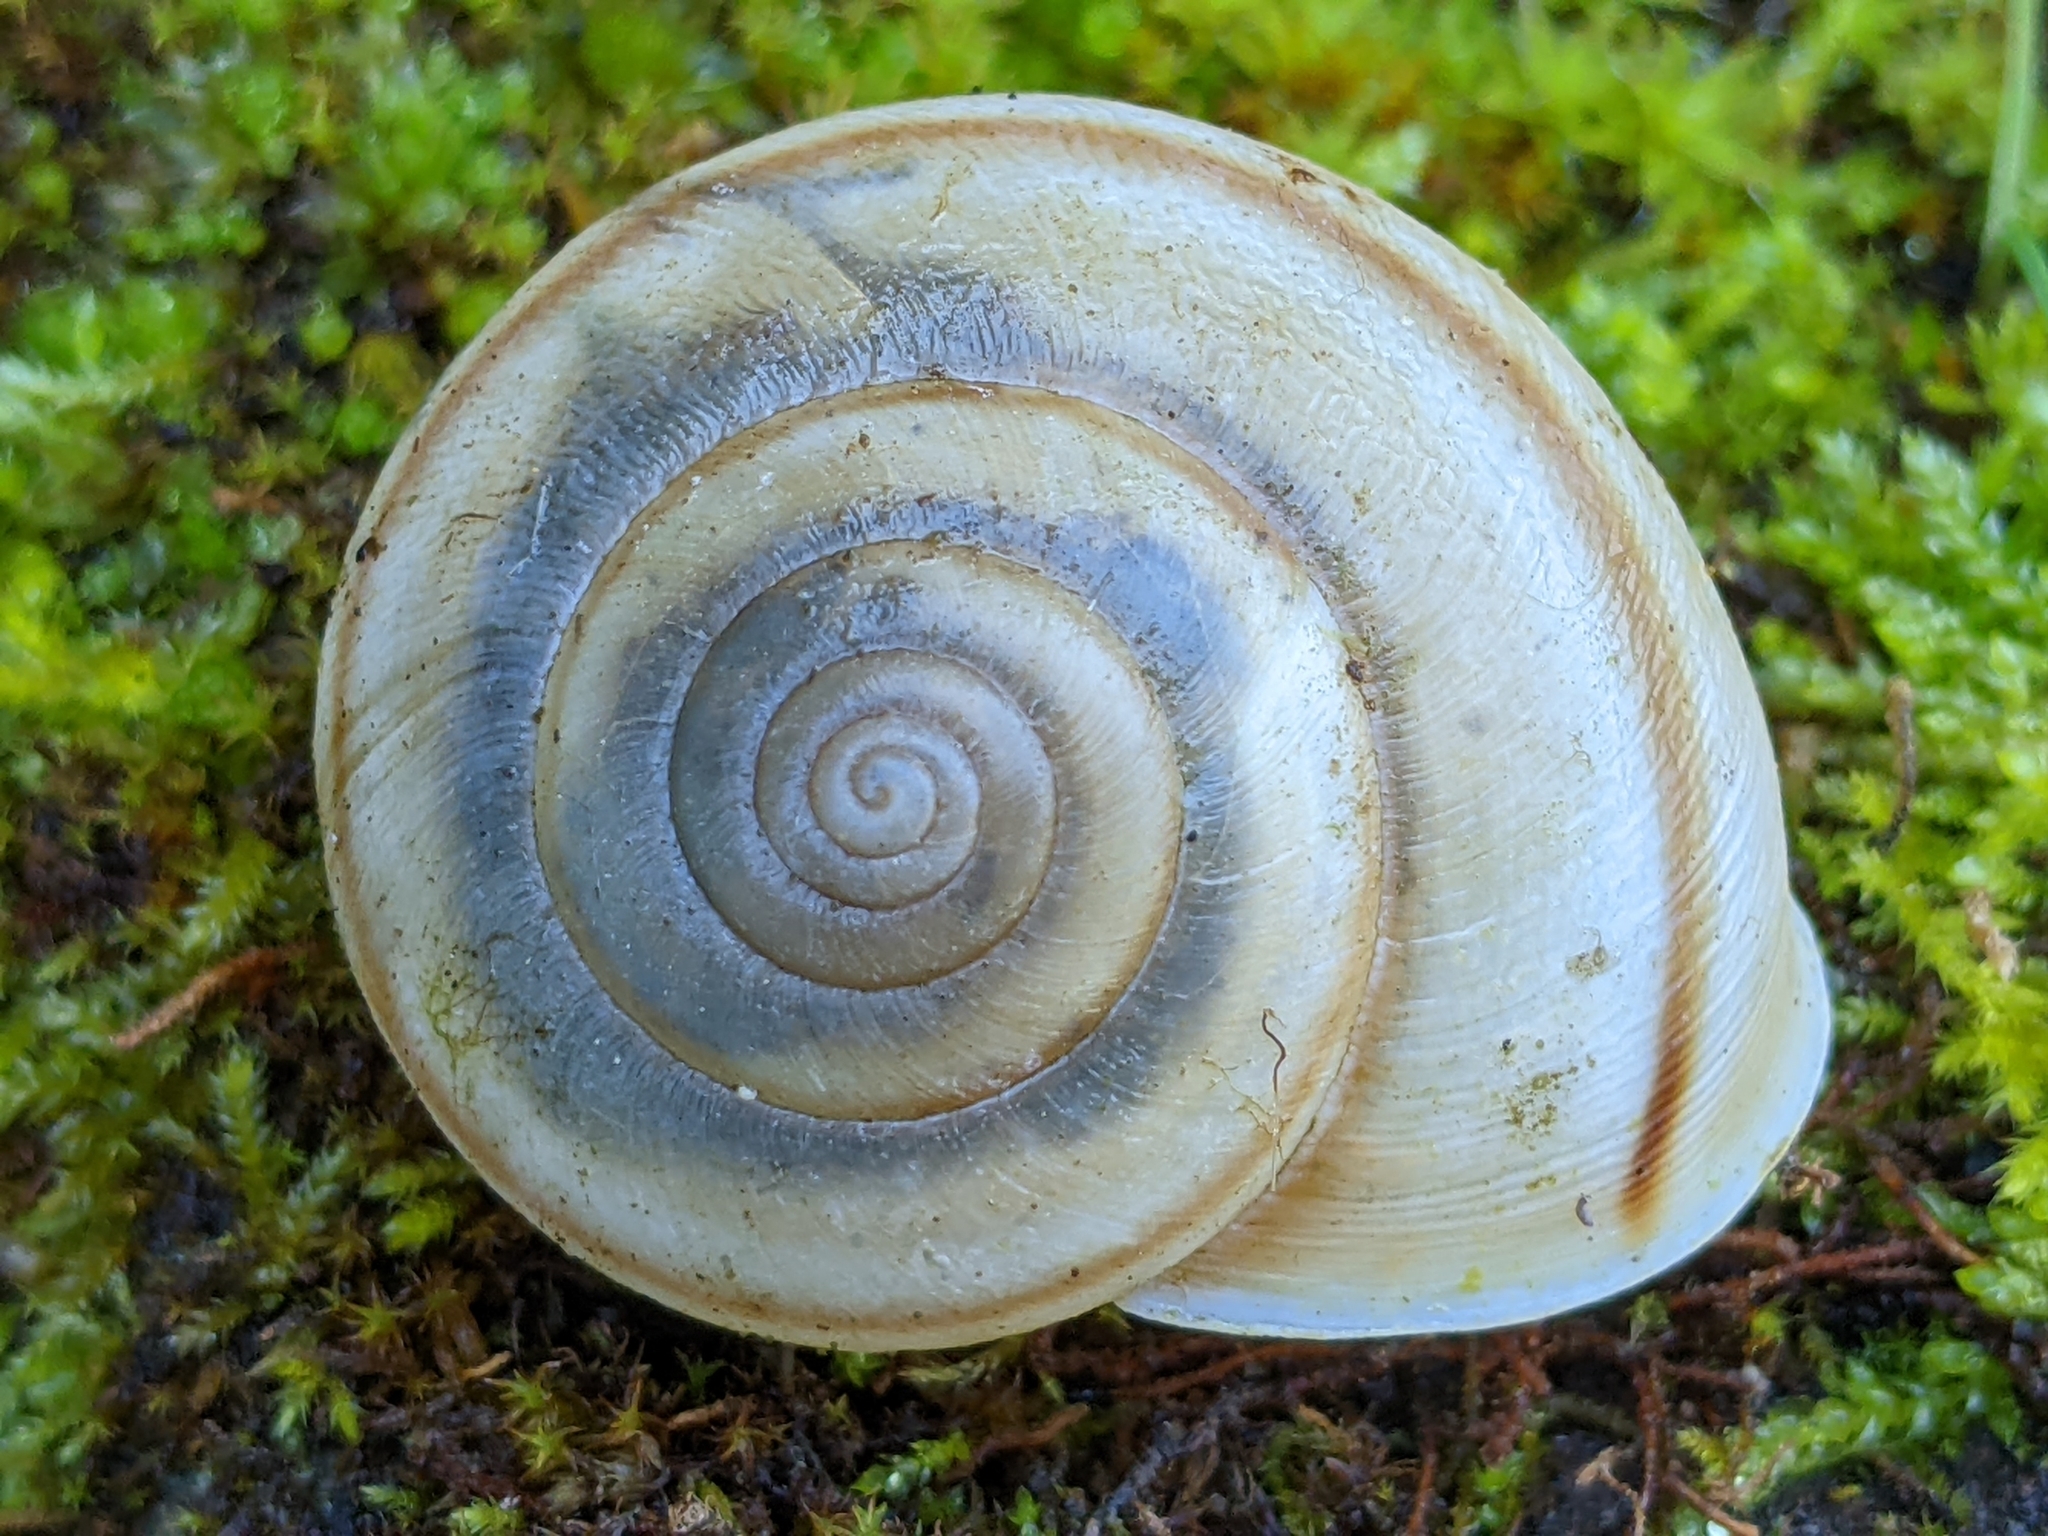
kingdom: Animalia
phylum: Mollusca
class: Gastropoda
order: Stylommatophora
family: Xanthonychidae
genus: Helminthoglypta
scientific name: Helminthoglypta cypreophila
